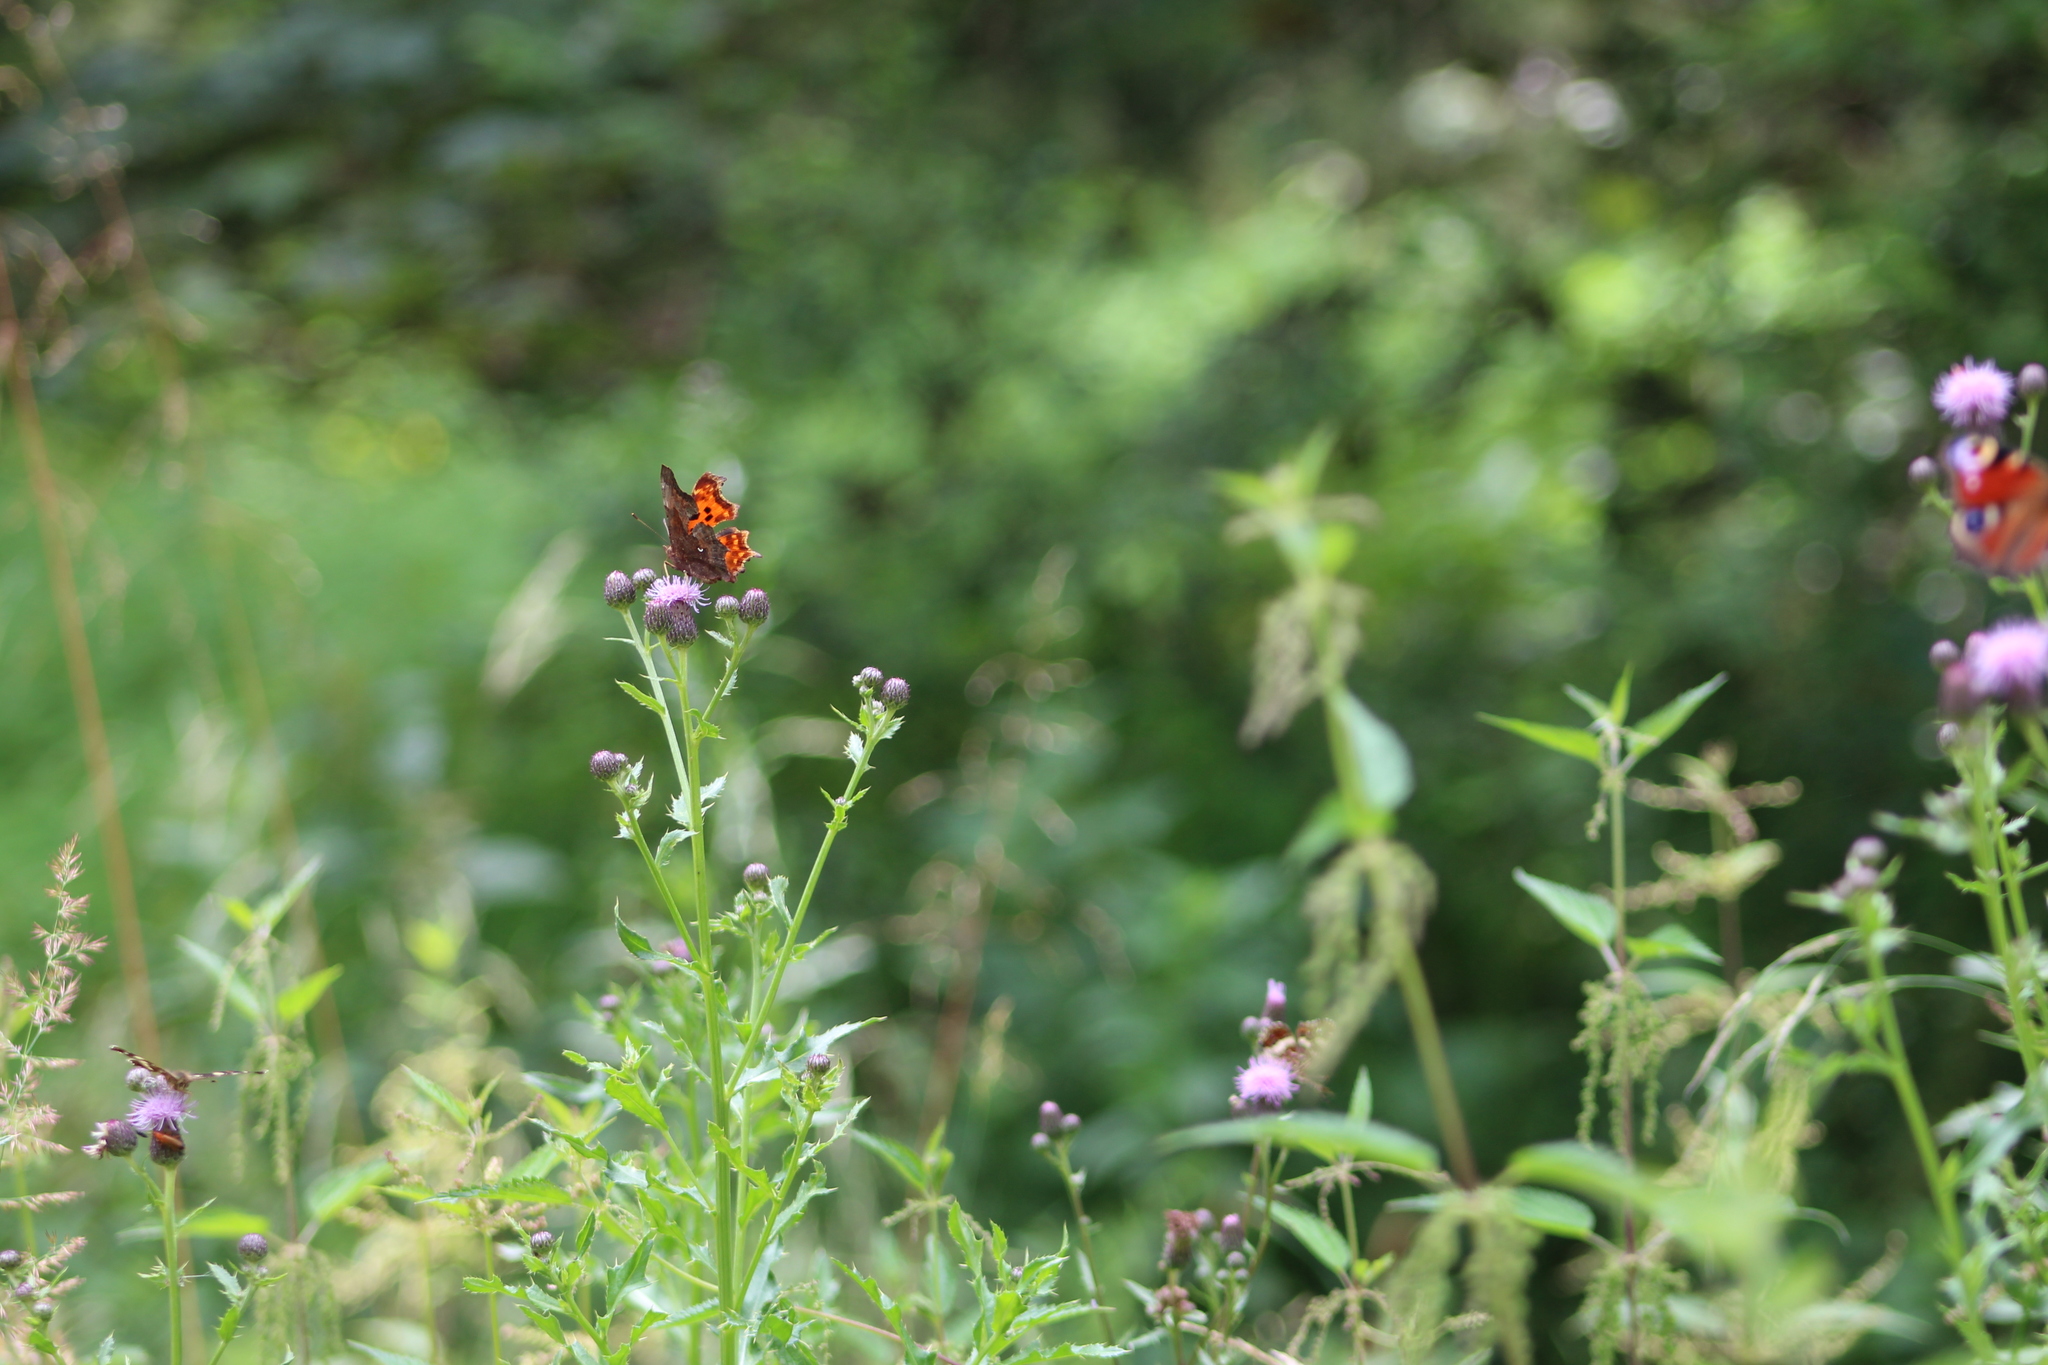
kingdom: Animalia
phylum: Arthropoda
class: Insecta
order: Lepidoptera
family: Nymphalidae
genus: Polygonia
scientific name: Polygonia c-album
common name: Comma
